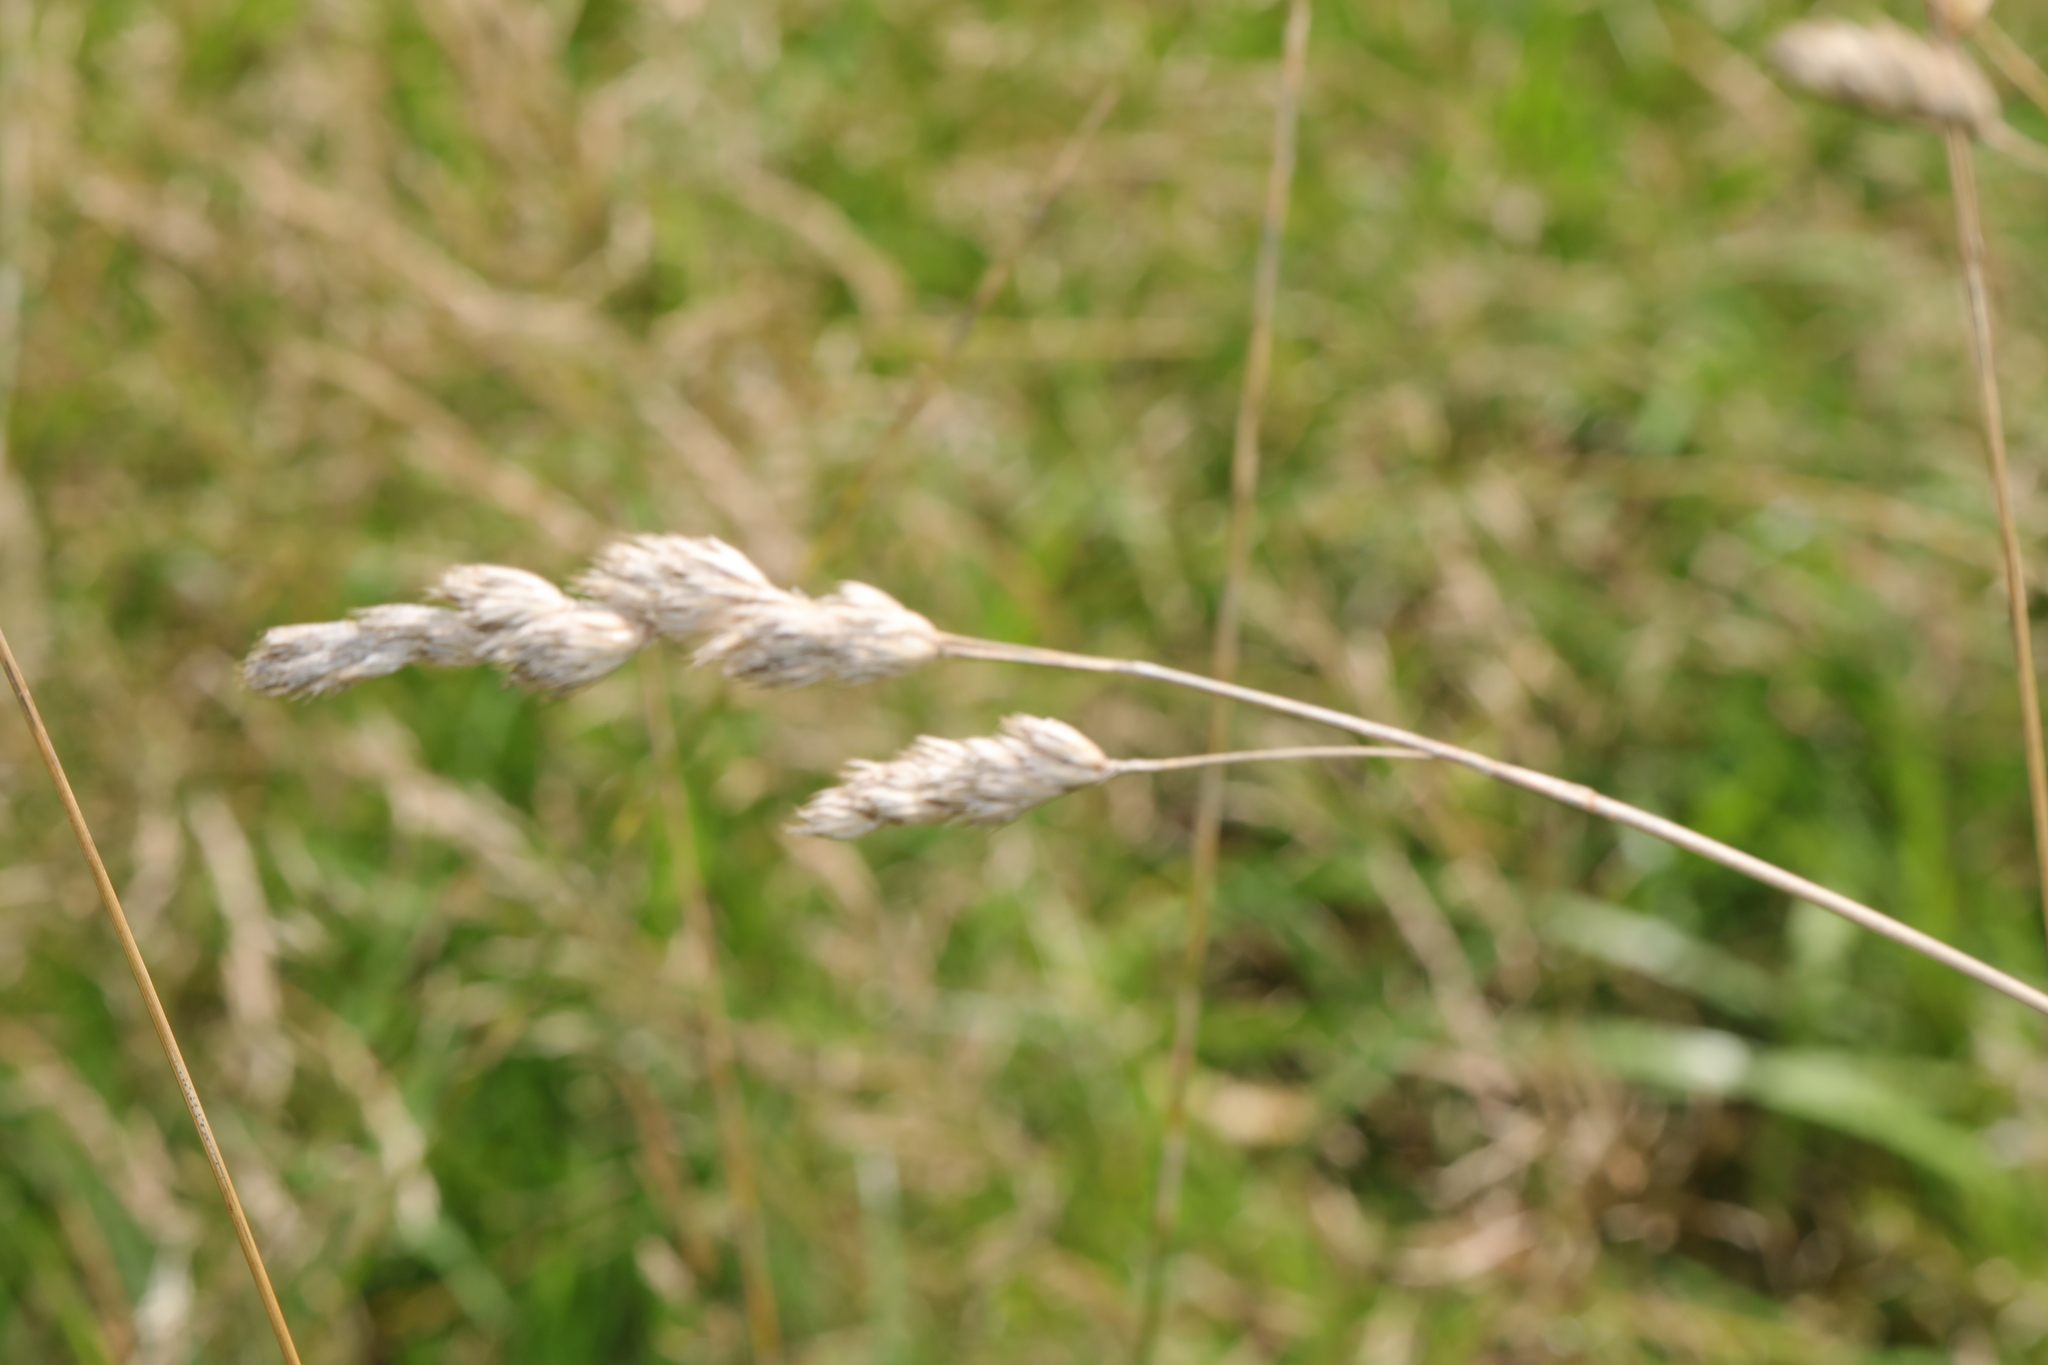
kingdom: Plantae
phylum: Tracheophyta
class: Liliopsida
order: Poales
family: Poaceae
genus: Dactylis
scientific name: Dactylis glomerata
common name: Orchardgrass
